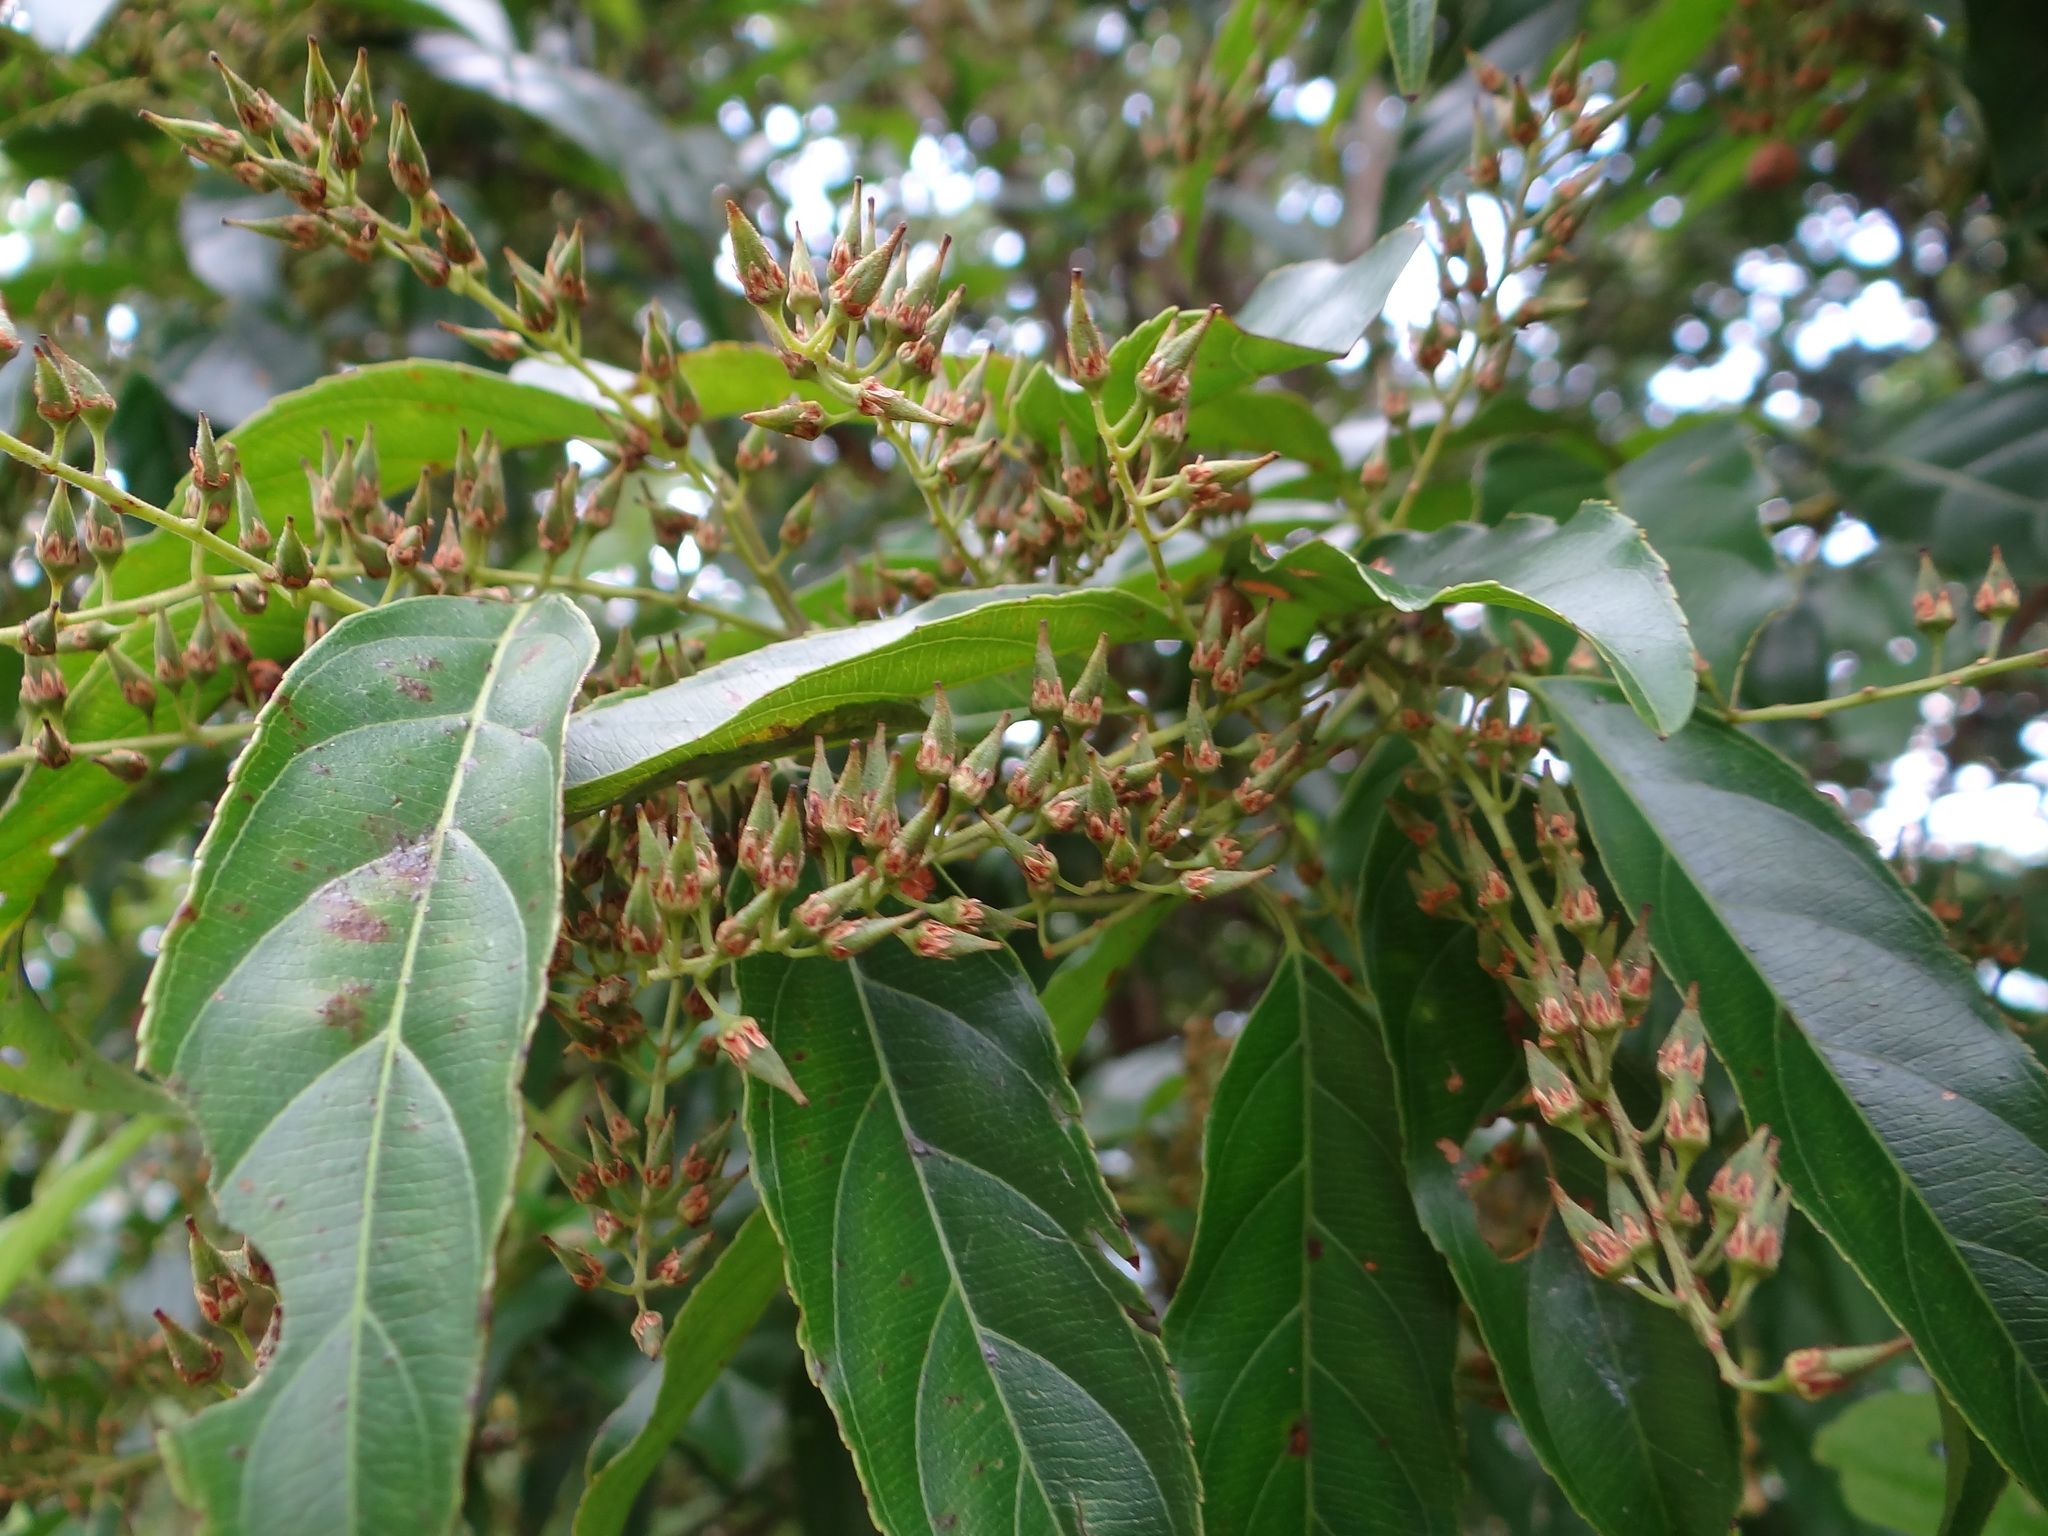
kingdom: Plantae
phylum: Tracheophyta
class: Magnoliopsida
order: Saxifragales
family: Iteaceae
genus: Itea
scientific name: Itea parviflora
